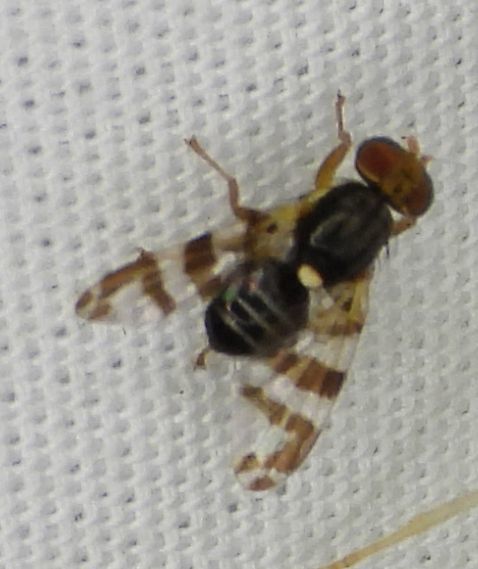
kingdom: Animalia
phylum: Arthropoda
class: Insecta
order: Diptera
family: Tephritidae
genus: Rhagoletis
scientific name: Rhagoletis cingulata
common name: North american cherry fruit fly
